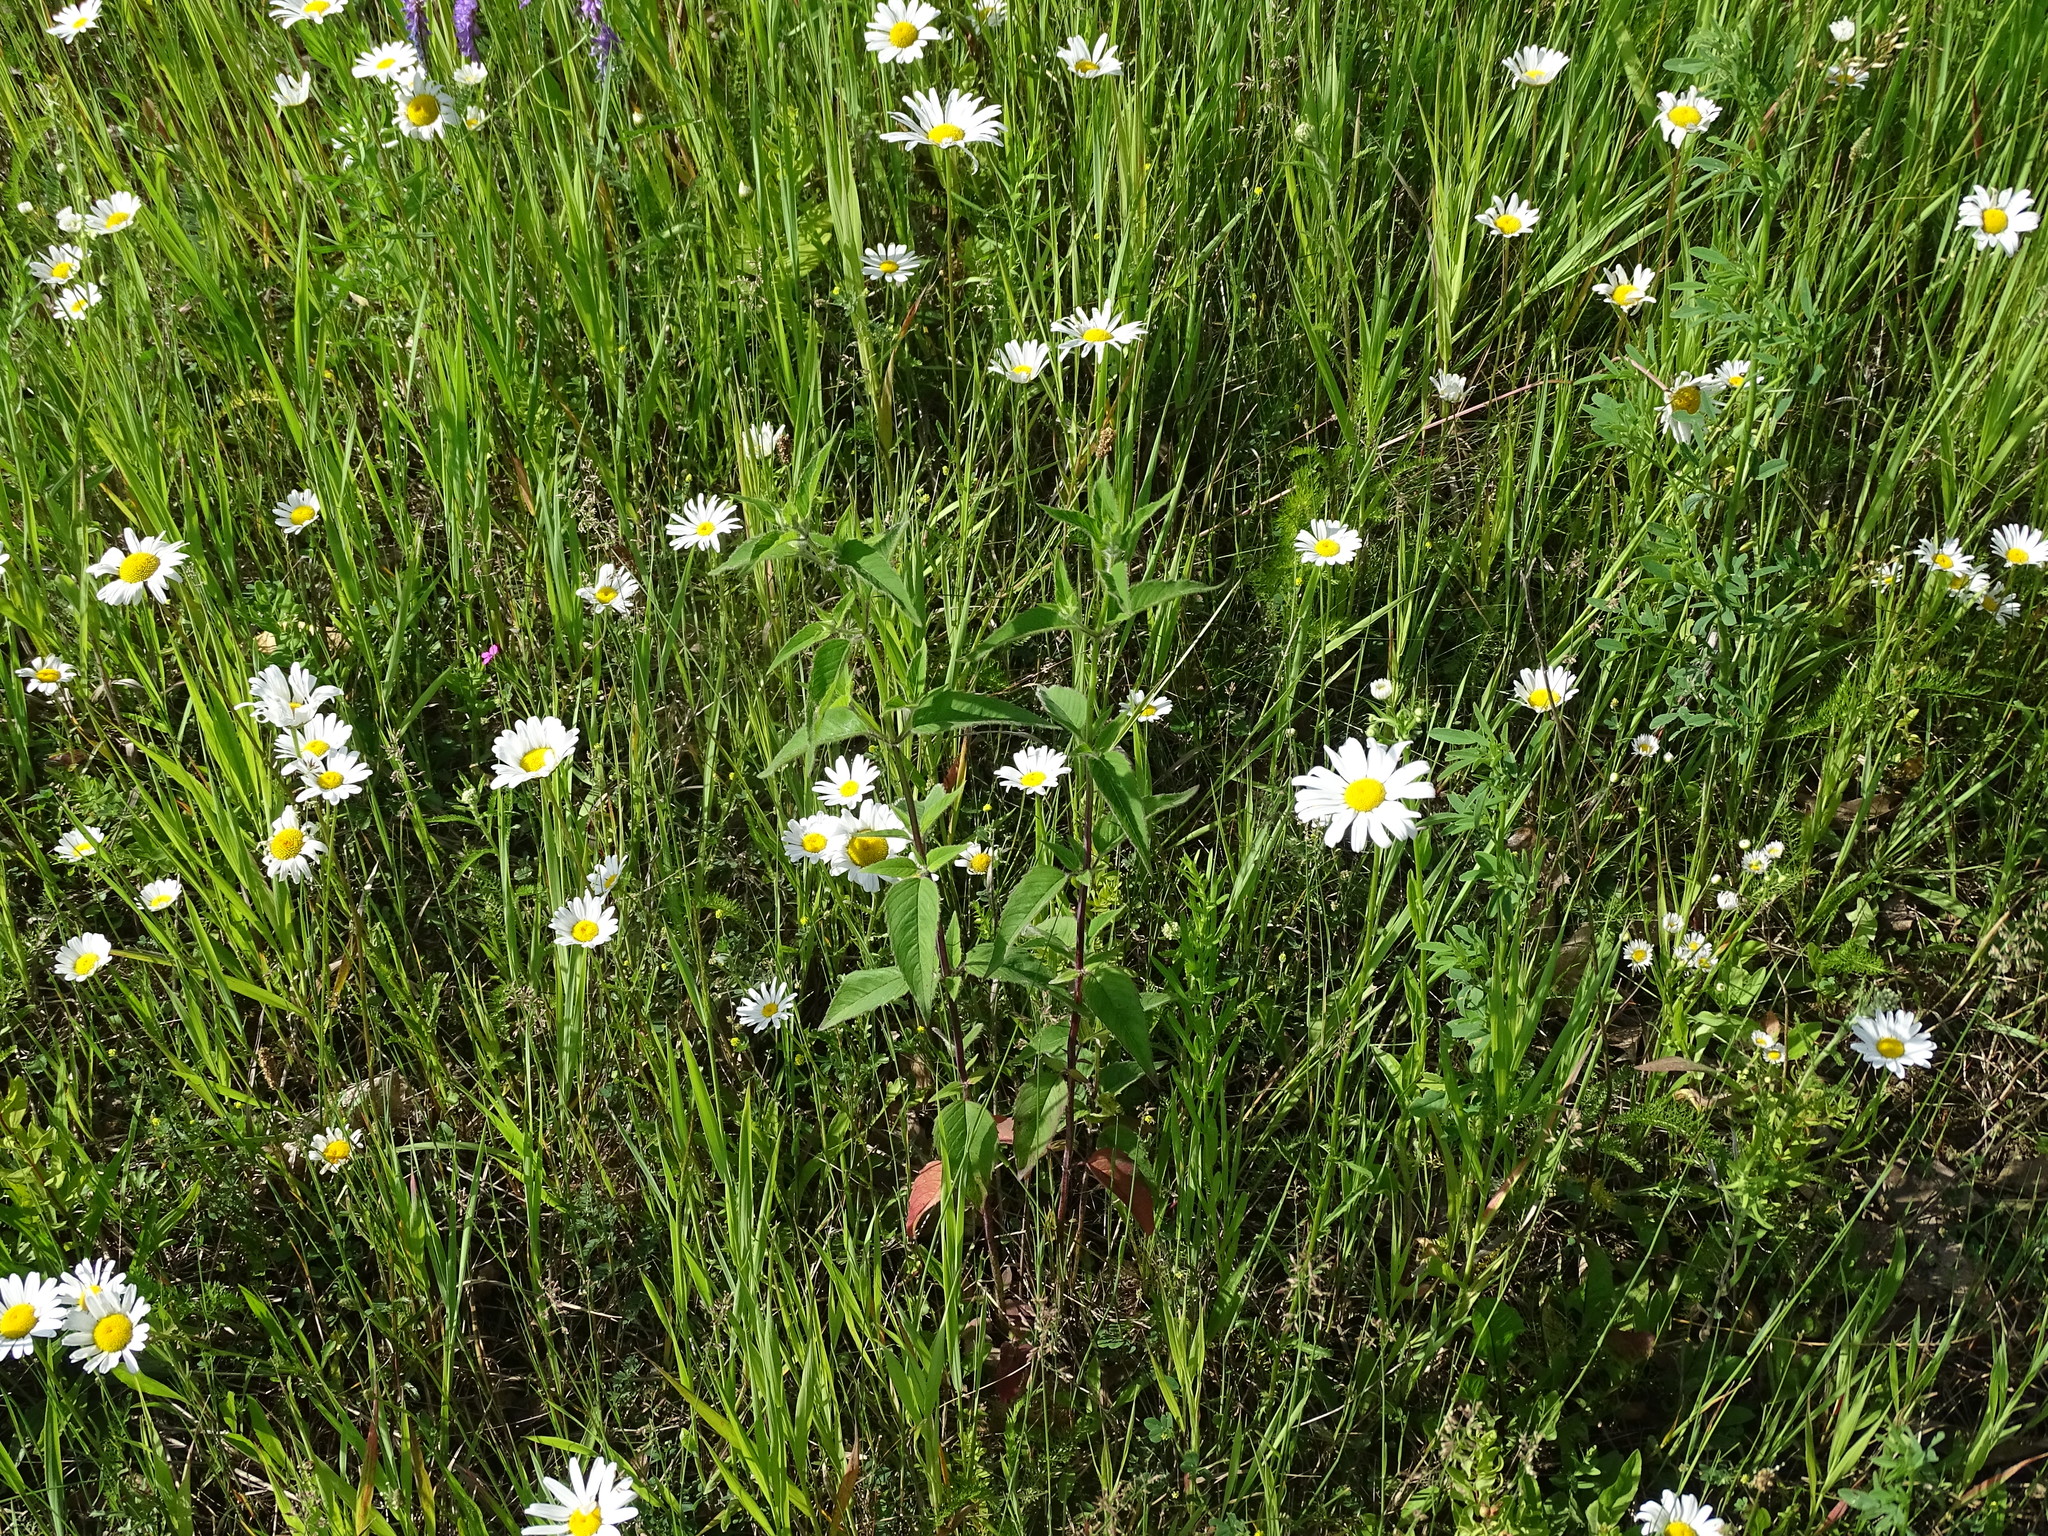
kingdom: Plantae
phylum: Tracheophyta
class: Magnoliopsida
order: Lamiales
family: Lamiaceae
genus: Monarda
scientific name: Monarda fistulosa
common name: Purple beebalm
